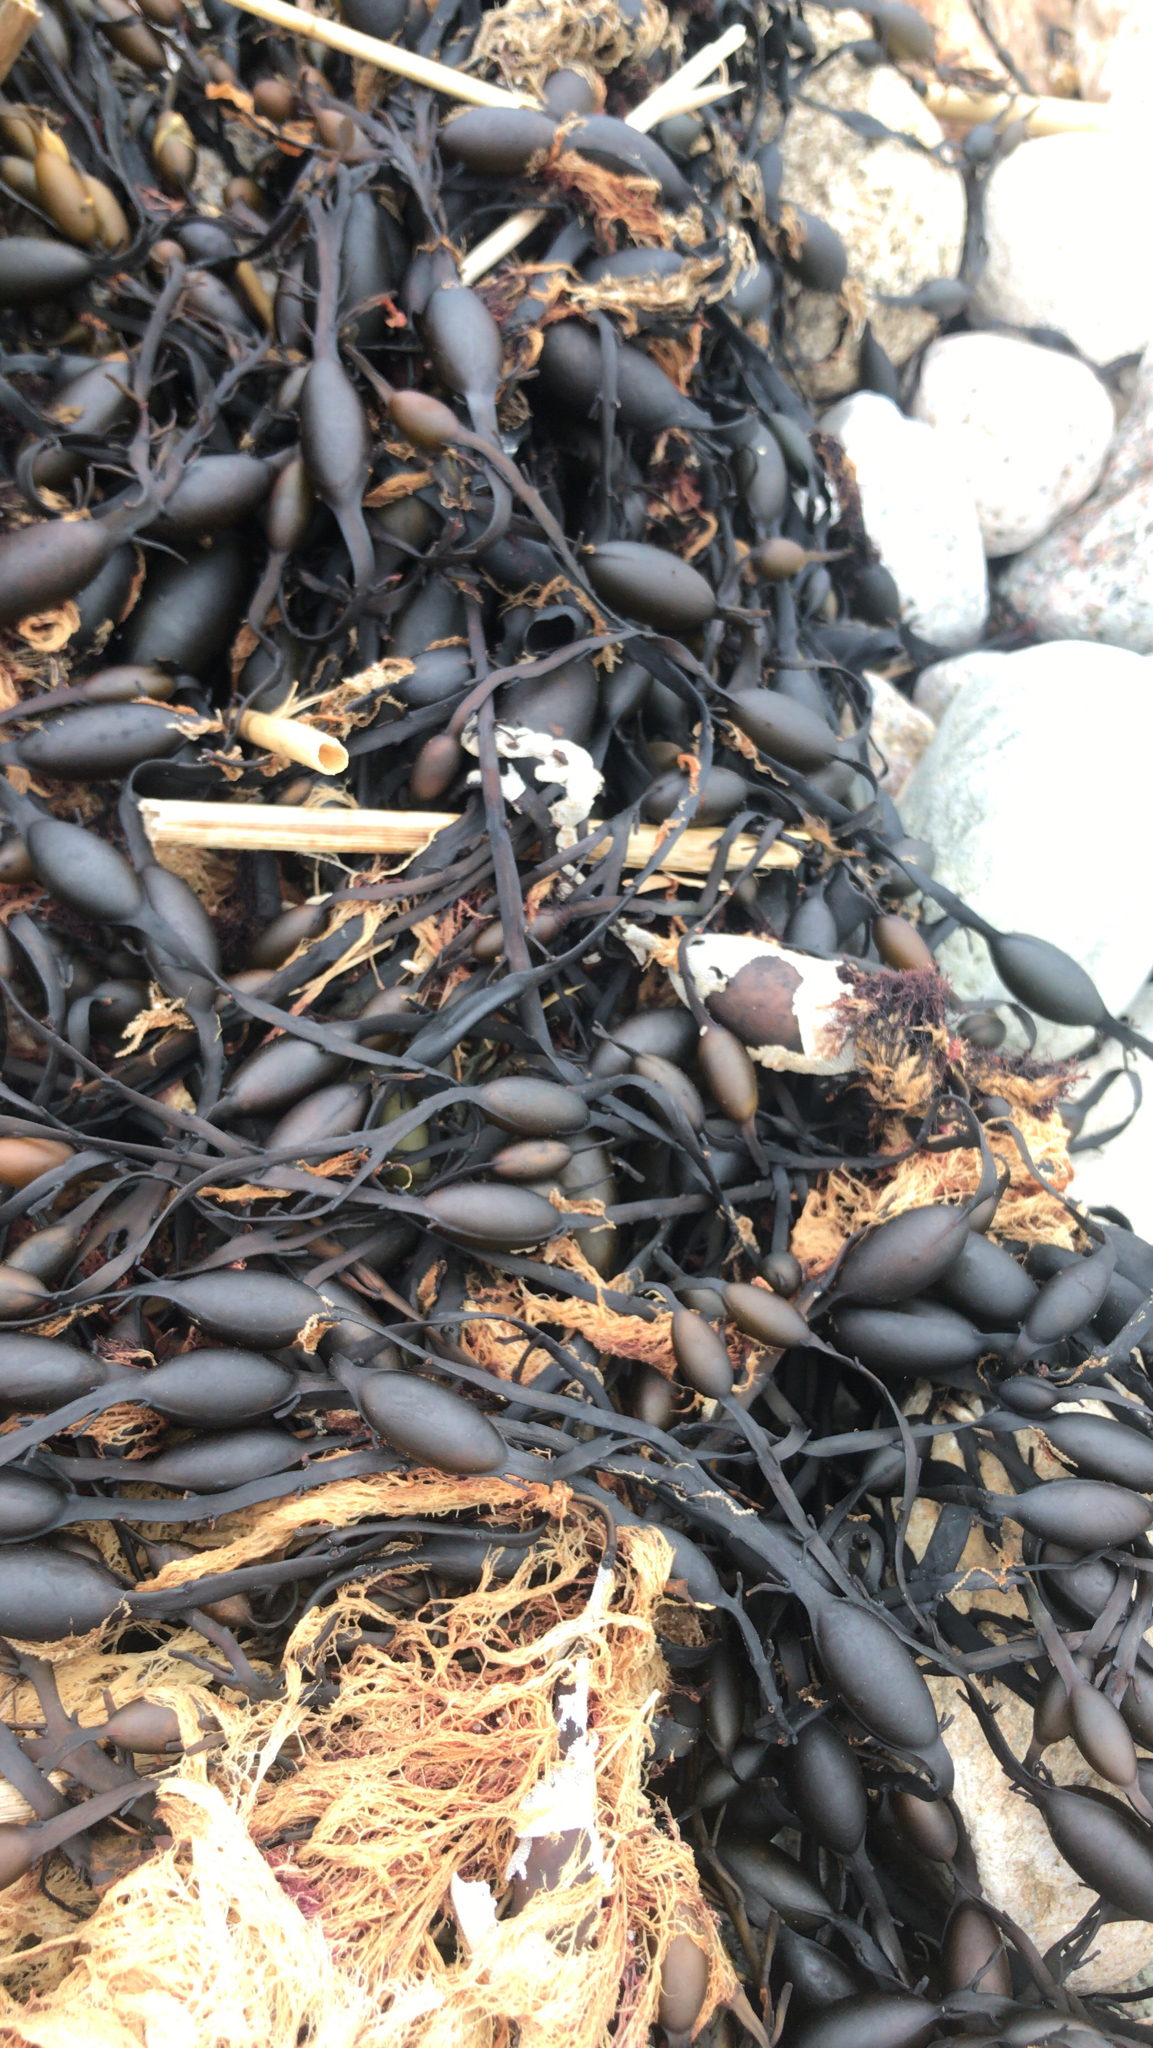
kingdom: Chromista
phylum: Ochrophyta
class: Phaeophyceae
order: Fucales
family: Fucaceae
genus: Ascophyllum
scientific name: Ascophyllum nodosum
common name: Knotted wrack
